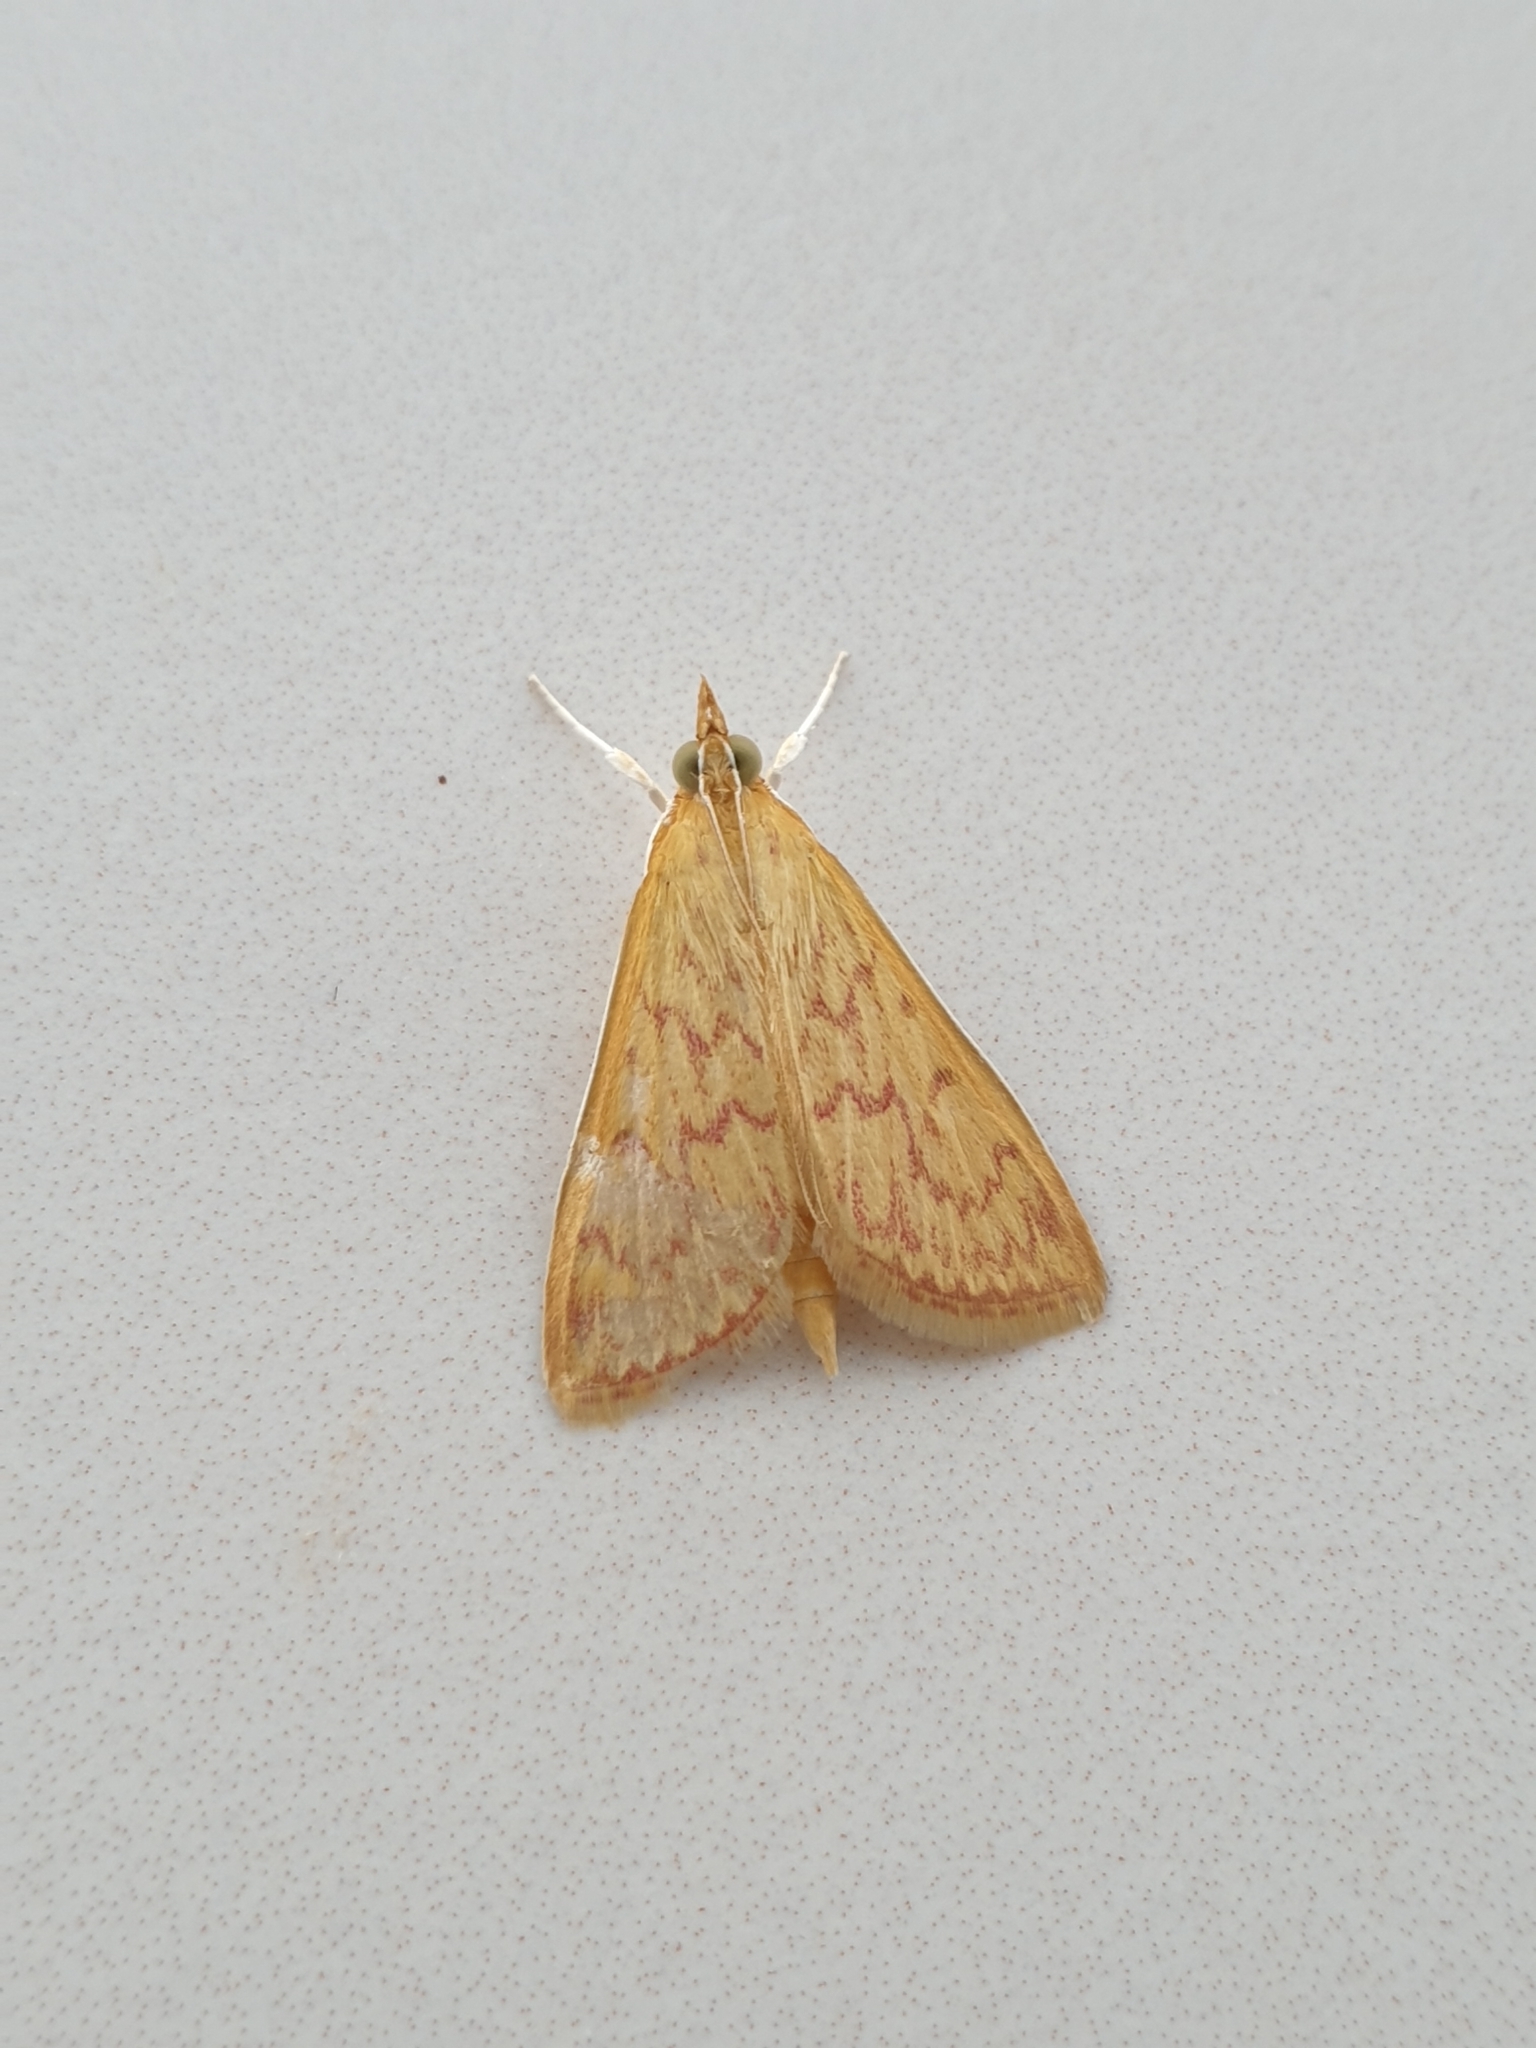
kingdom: Animalia
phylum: Arthropoda
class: Insecta
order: Lepidoptera
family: Crambidae
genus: Paliga
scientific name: Paliga damastesalis
